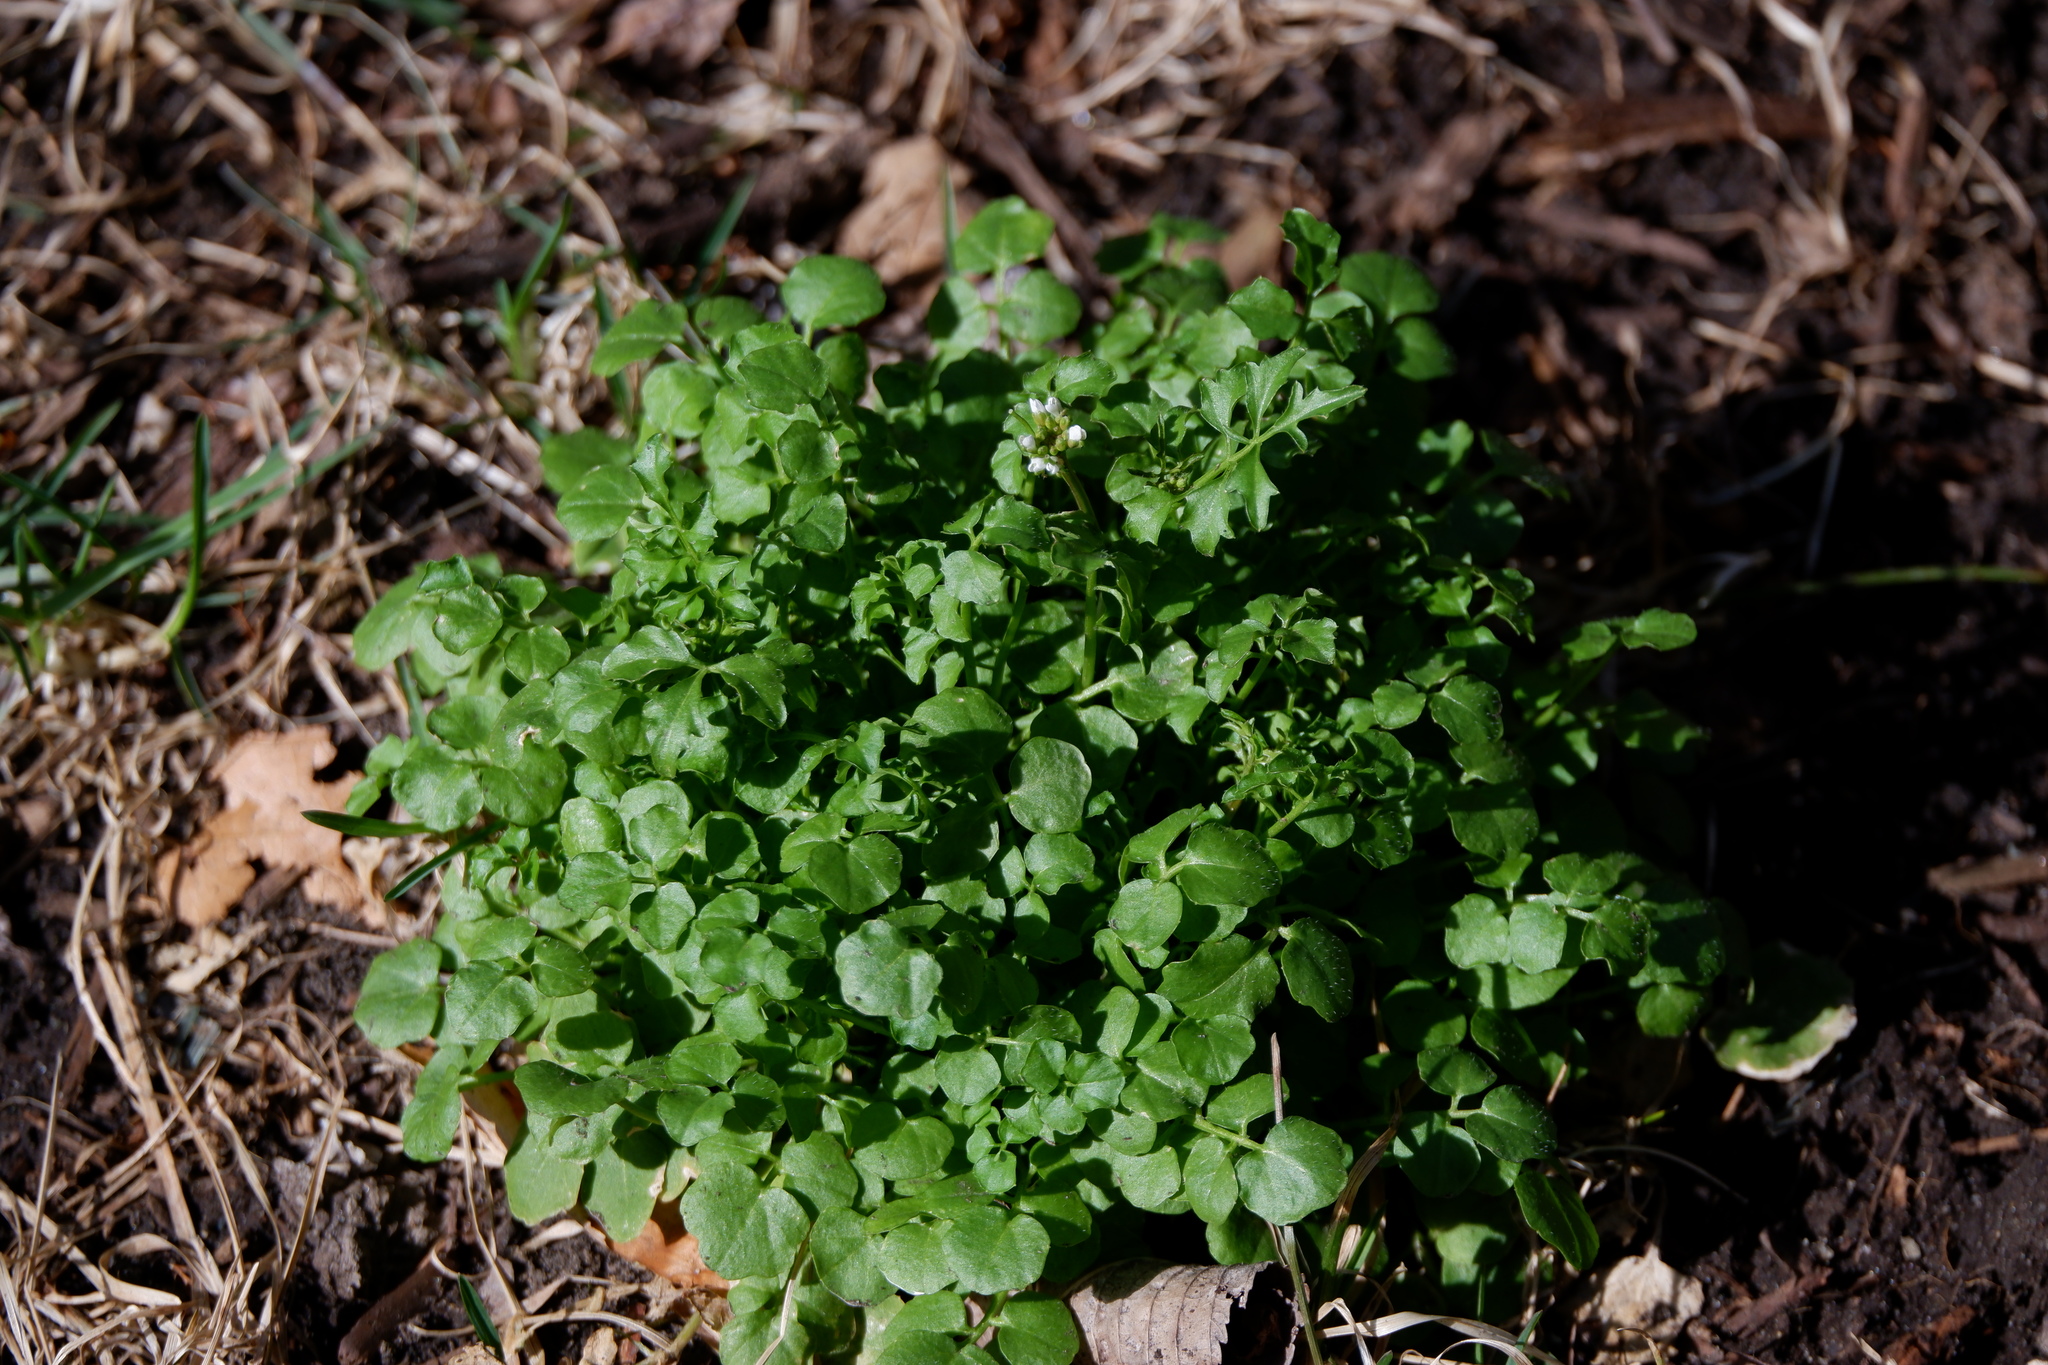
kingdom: Plantae
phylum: Tracheophyta
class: Magnoliopsida
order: Brassicales
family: Brassicaceae
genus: Cardamine
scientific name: Cardamine hirsuta
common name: Hairy bittercress
